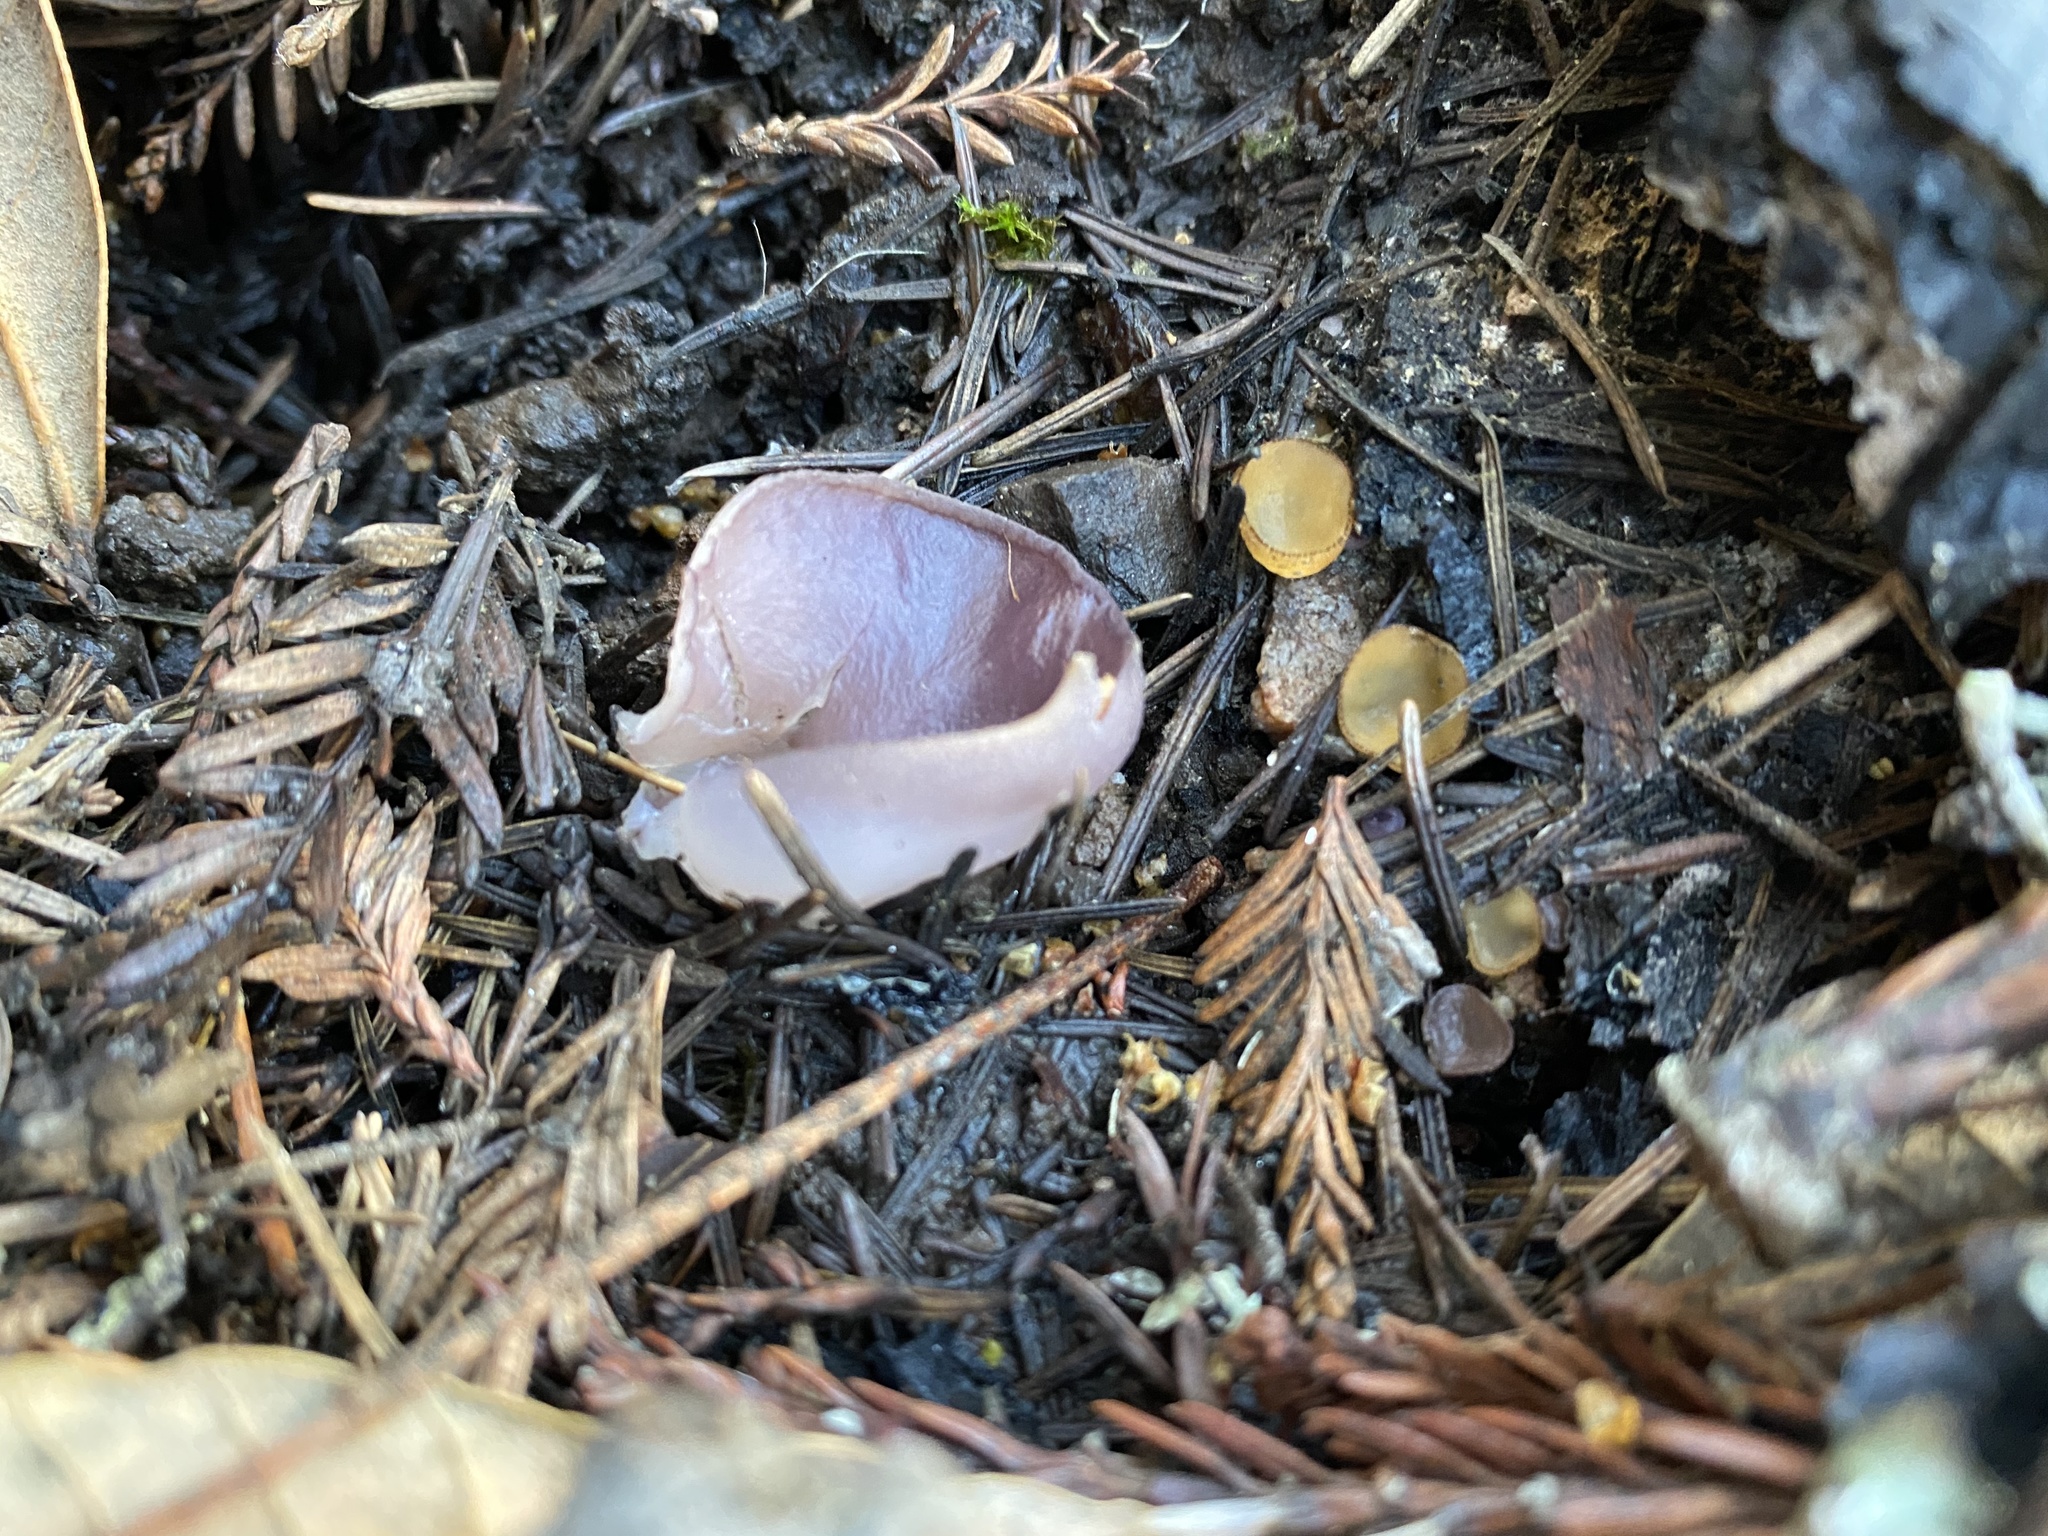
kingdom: Fungi
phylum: Ascomycota
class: Pezizomycetes
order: Pezizales
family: Pezizaceae
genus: Geoscypha
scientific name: Geoscypha violacea
